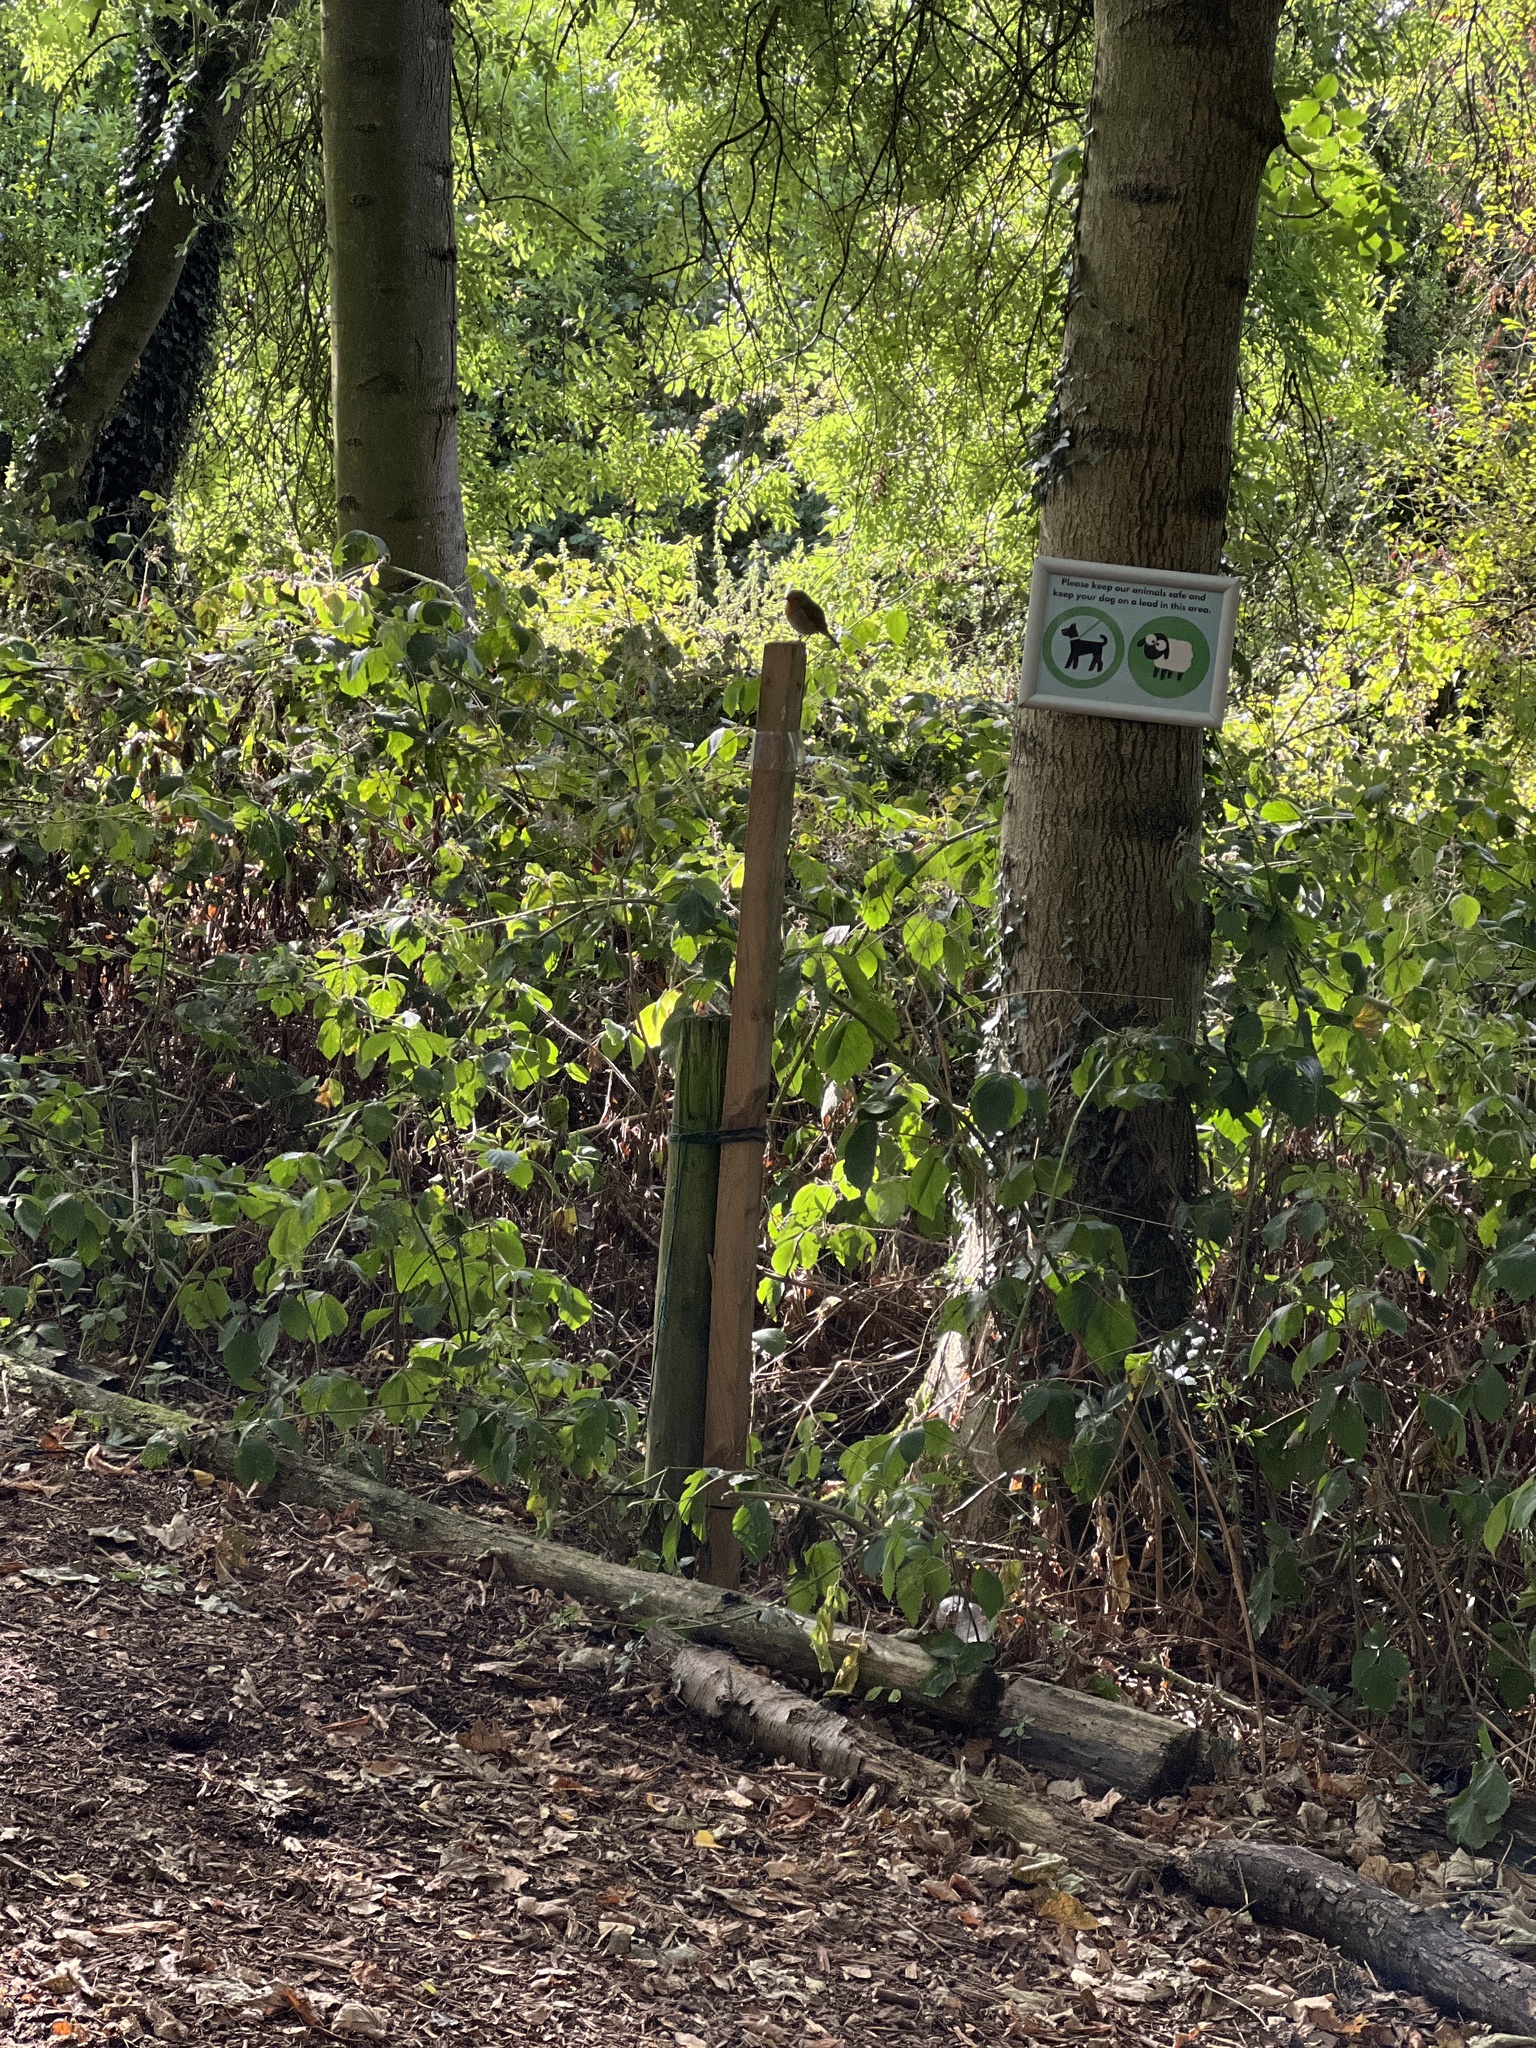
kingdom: Animalia
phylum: Chordata
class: Aves
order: Passeriformes
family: Muscicapidae
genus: Erithacus
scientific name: Erithacus rubecula
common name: European robin
